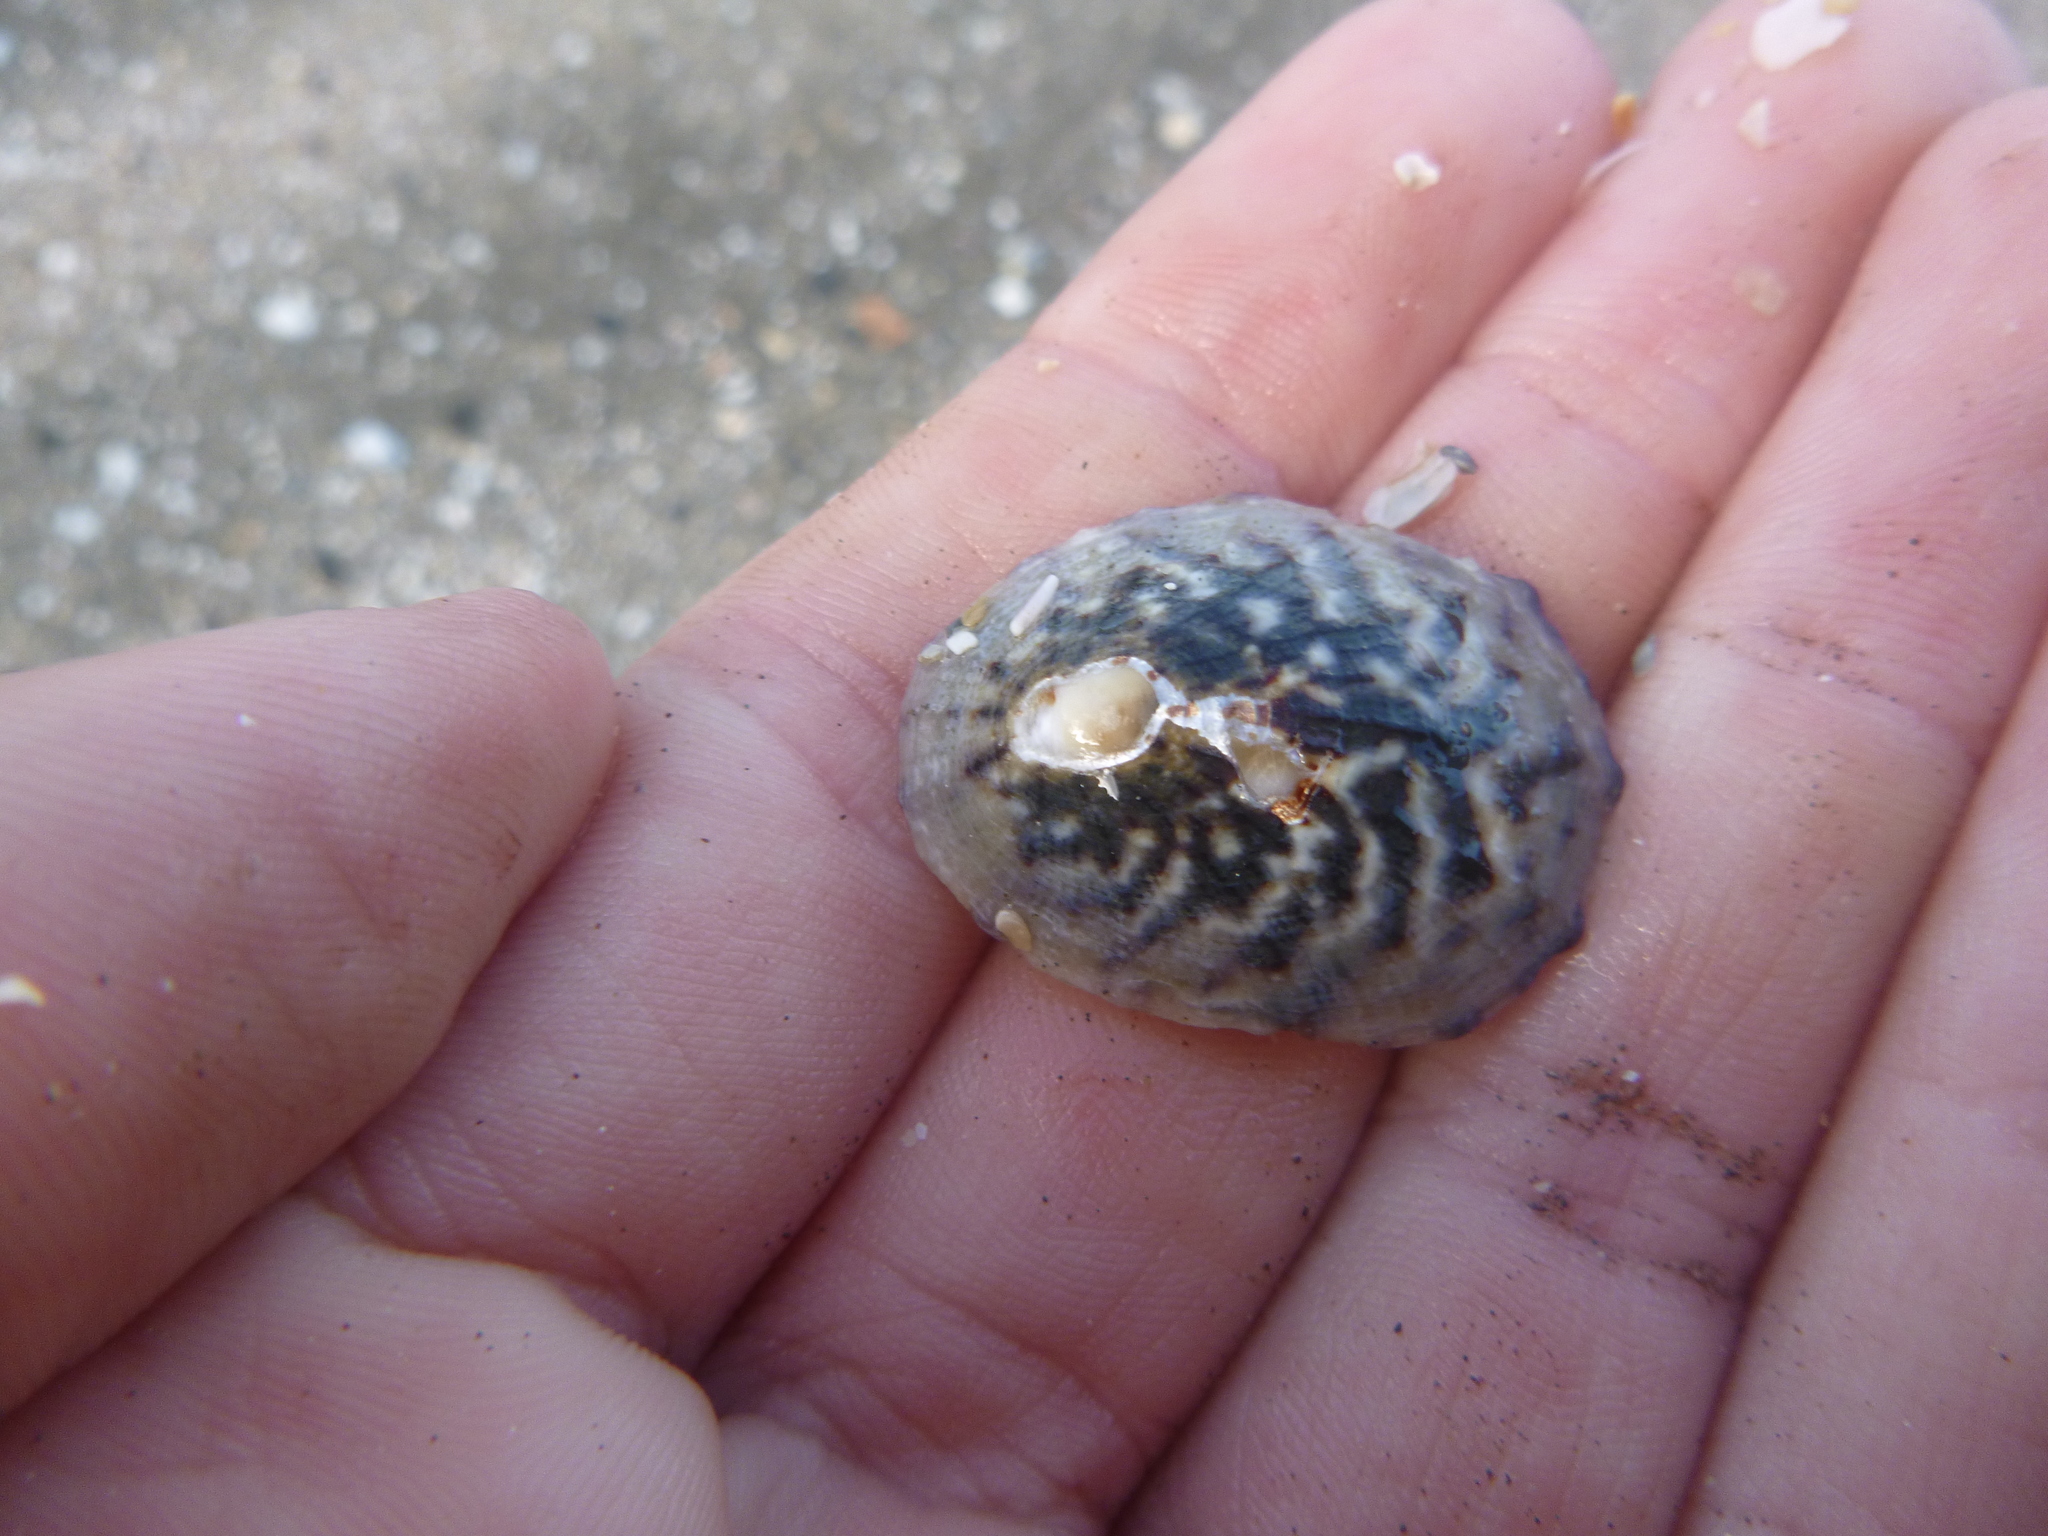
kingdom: Animalia
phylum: Mollusca
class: Gastropoda
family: Nacellidae
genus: Cellana
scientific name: Cellana radians
